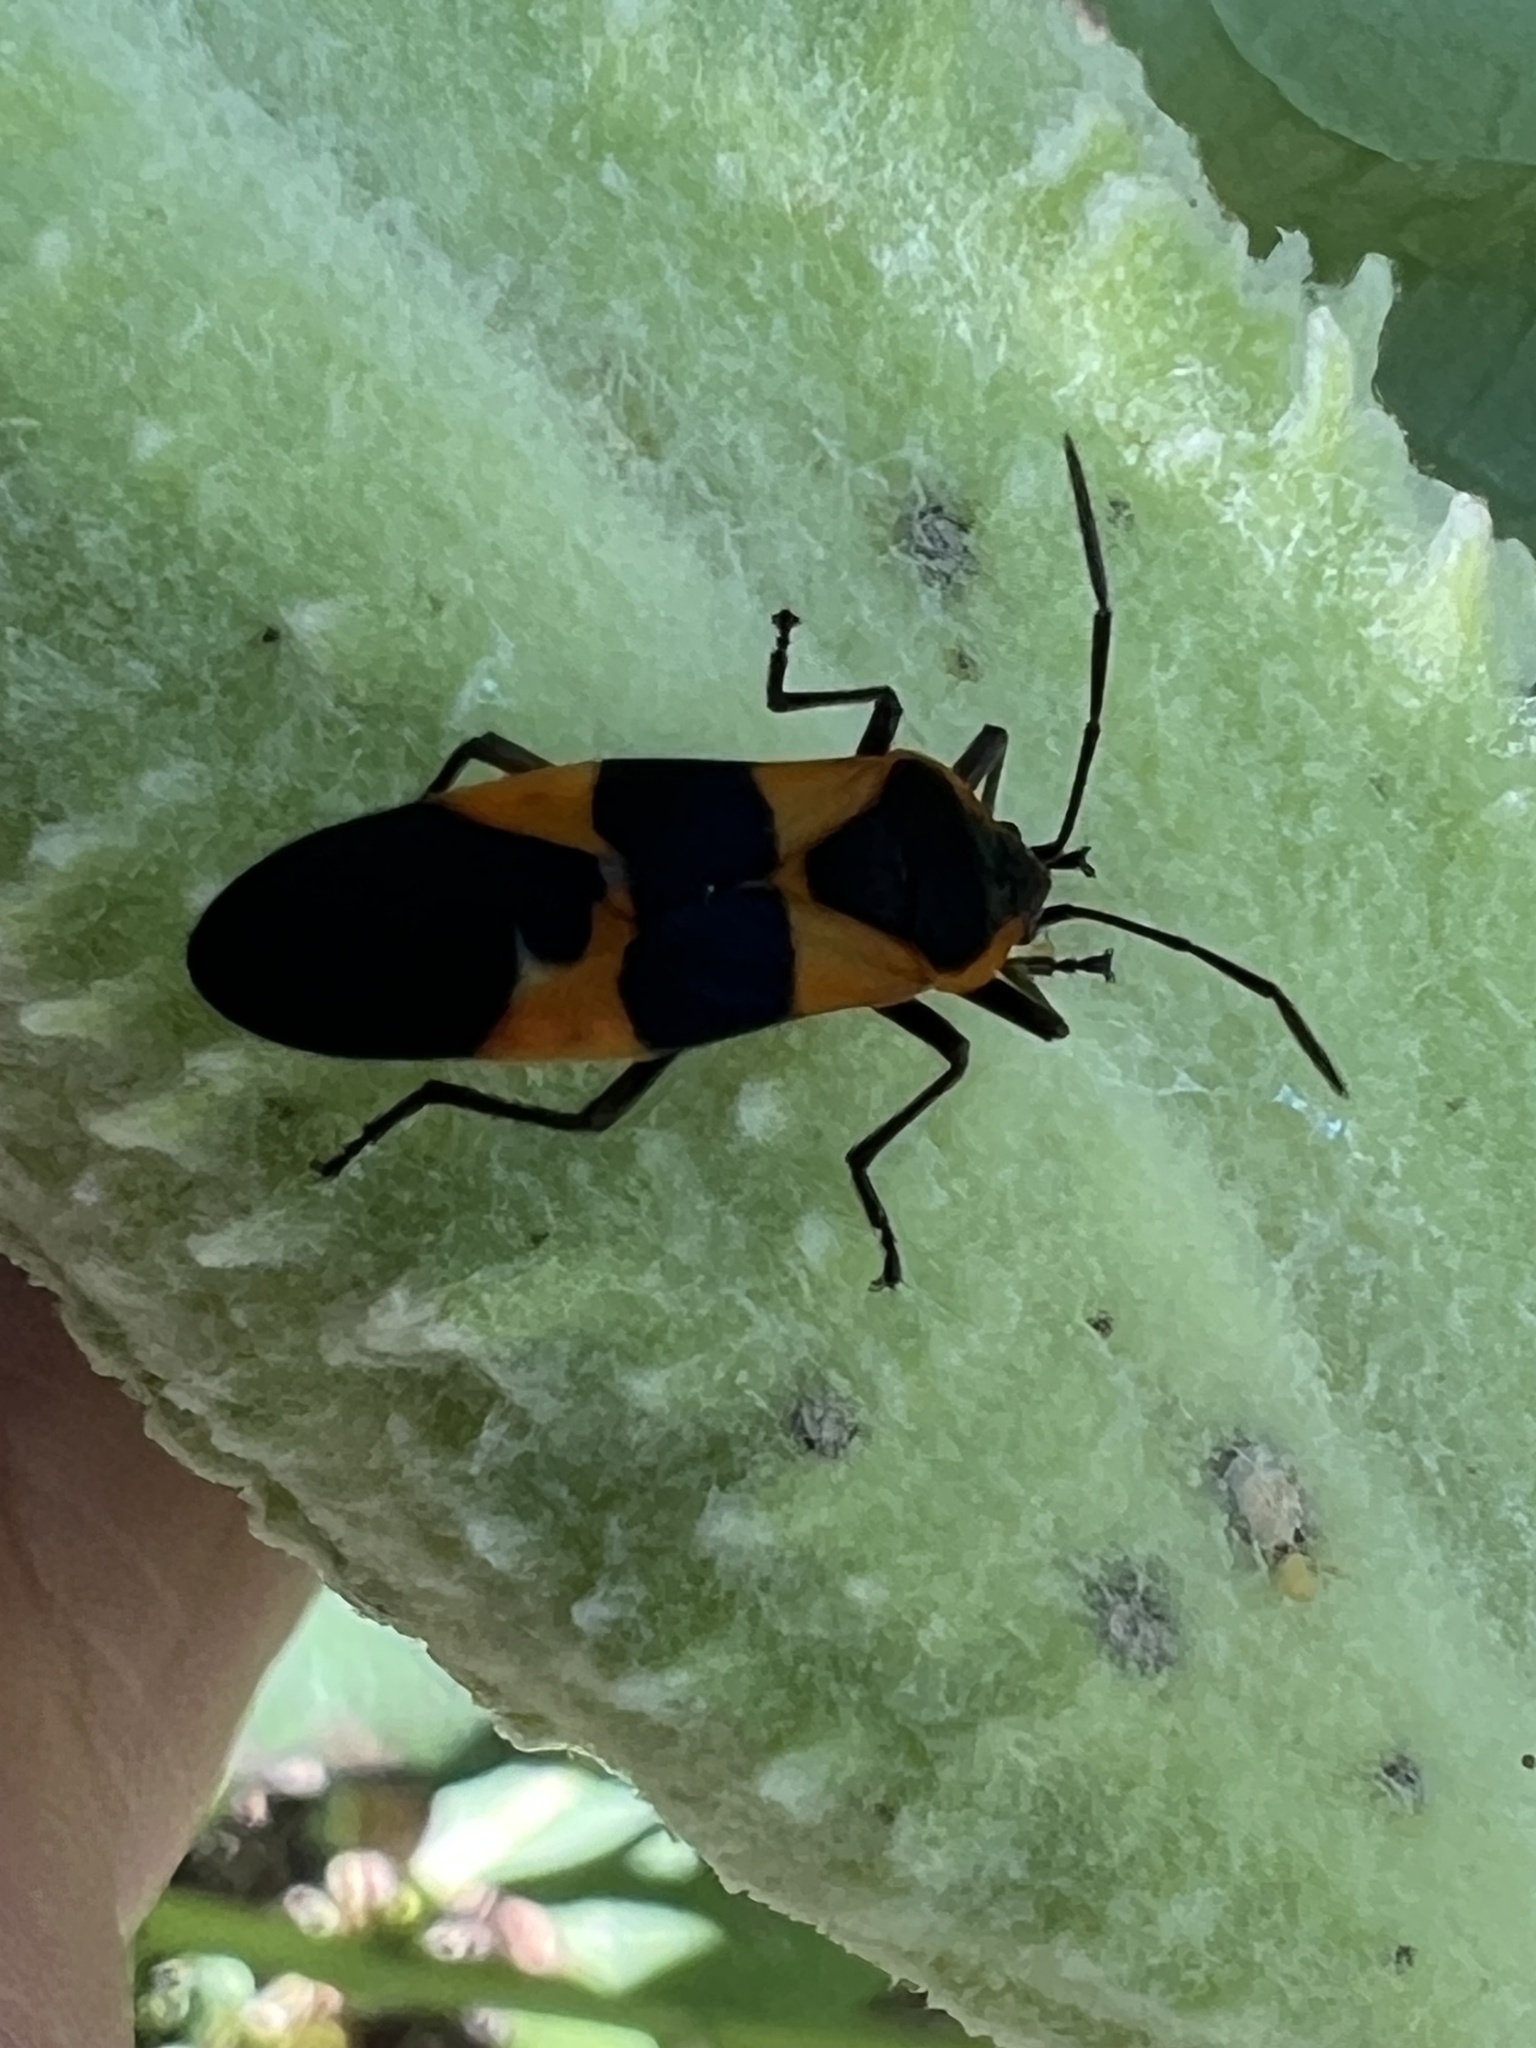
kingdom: Animalia
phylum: Arthropoda
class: Insecta
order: Hemiptera
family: Lygaeidae
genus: Oncopeltus
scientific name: Oncopeltus fasciatus
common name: Large milkweed bug
